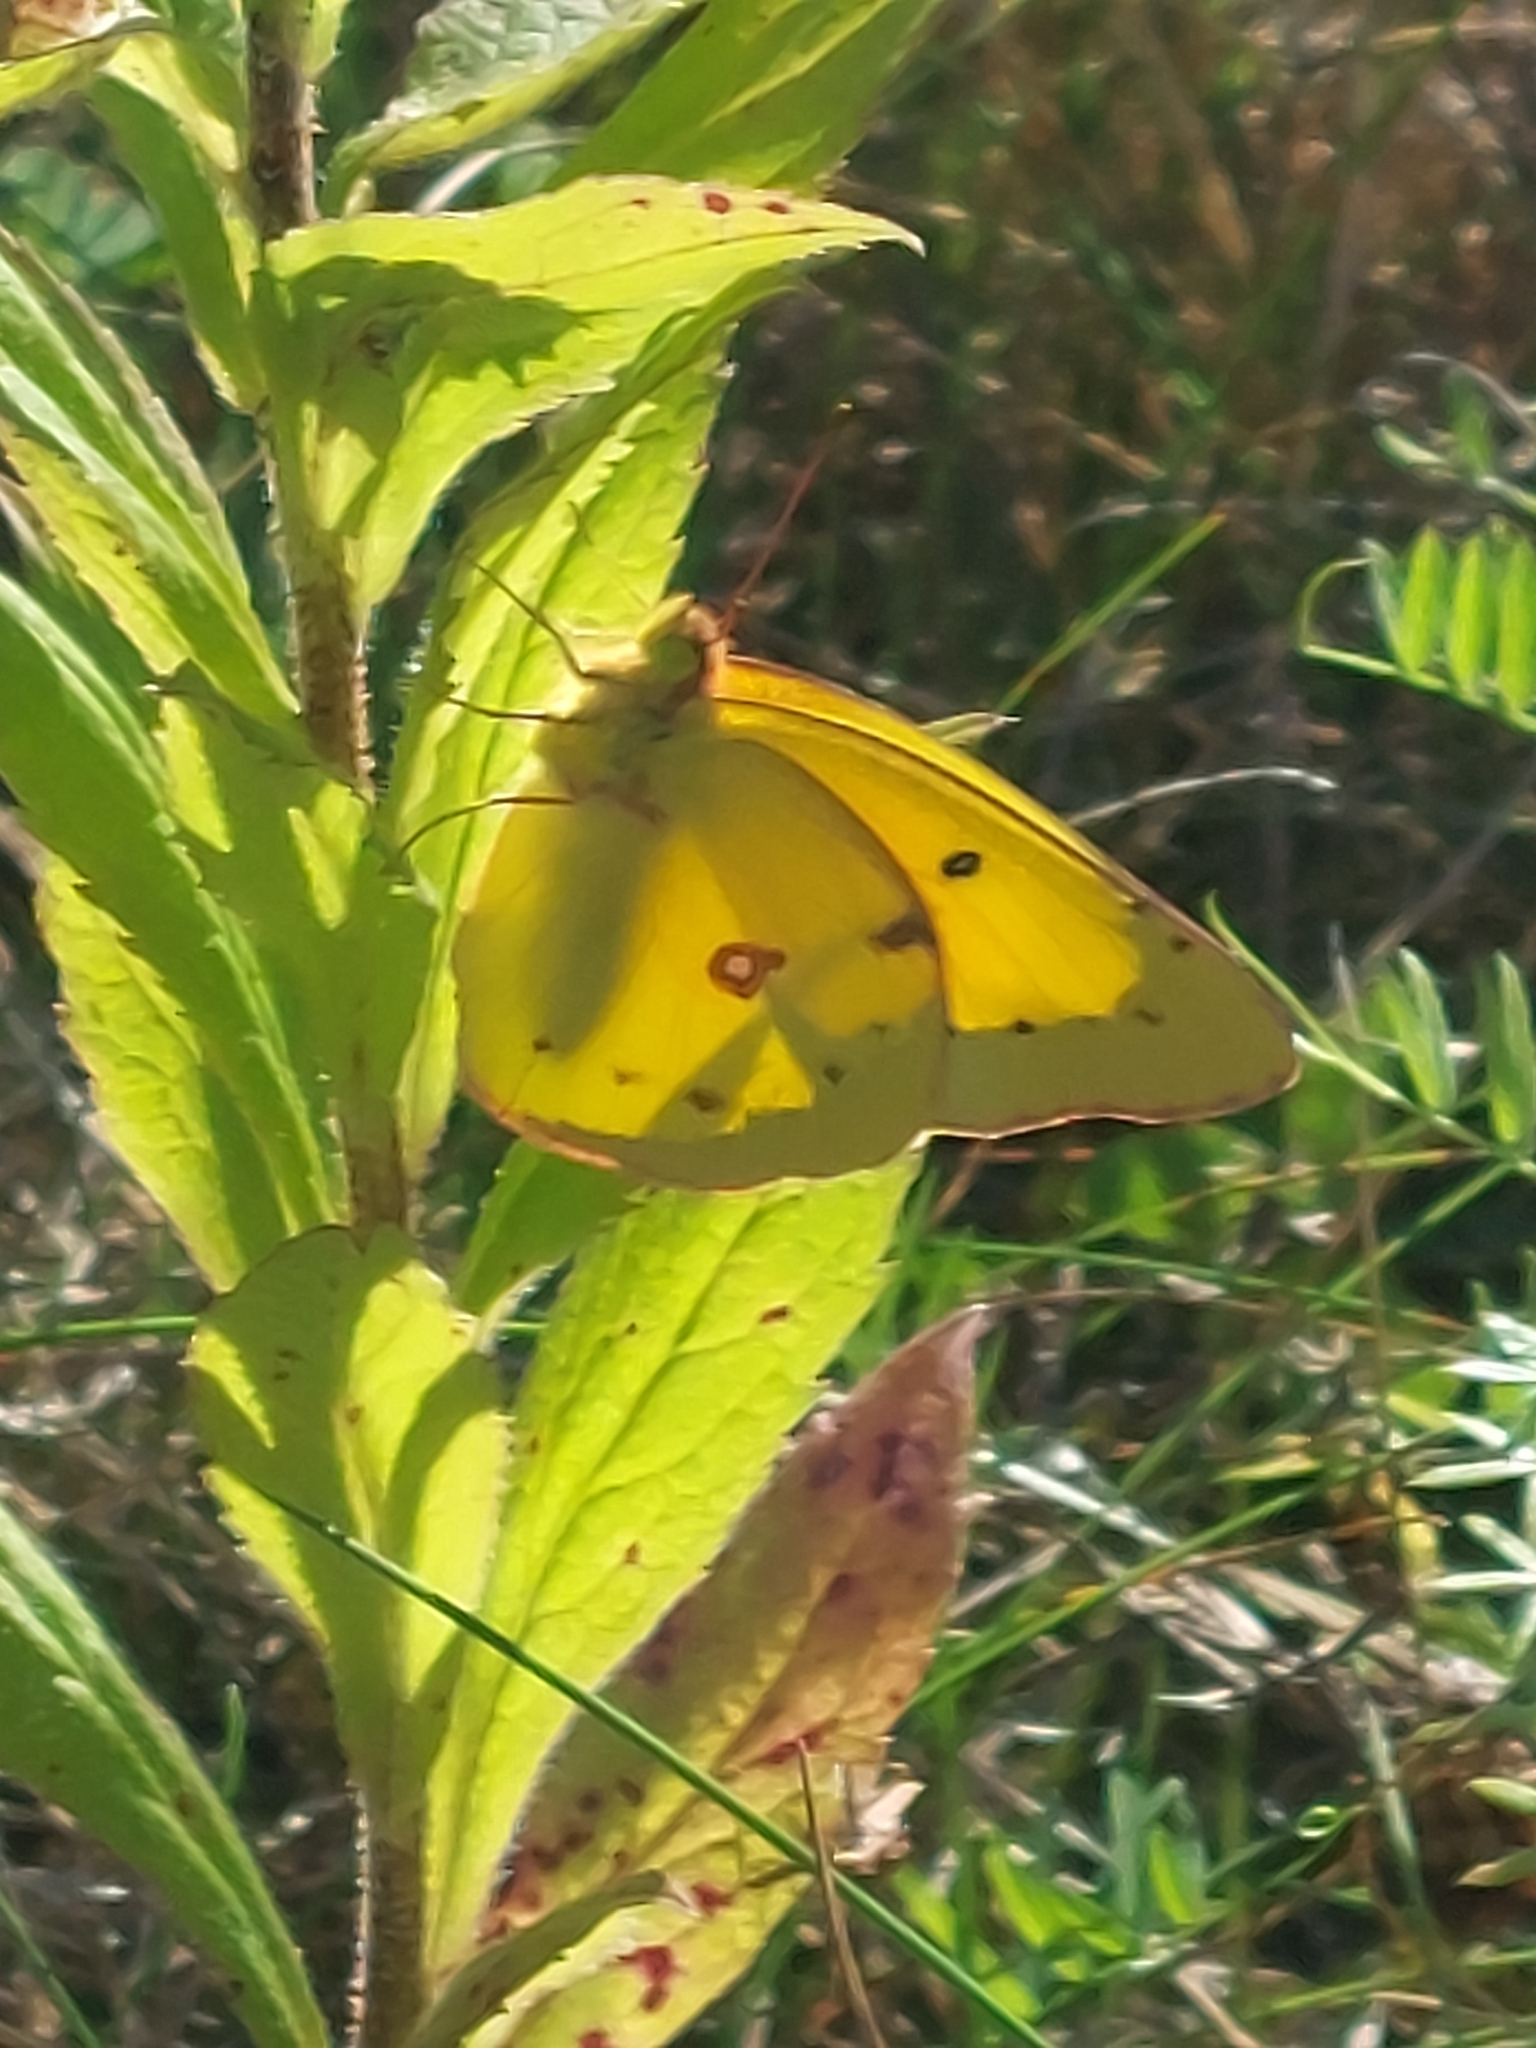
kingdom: Animalia
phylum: Arthropoda
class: Insecta
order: Lepidoptera
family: Pieridae
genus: Colias
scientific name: Colias eurytheme
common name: Alfalfa butterfly
